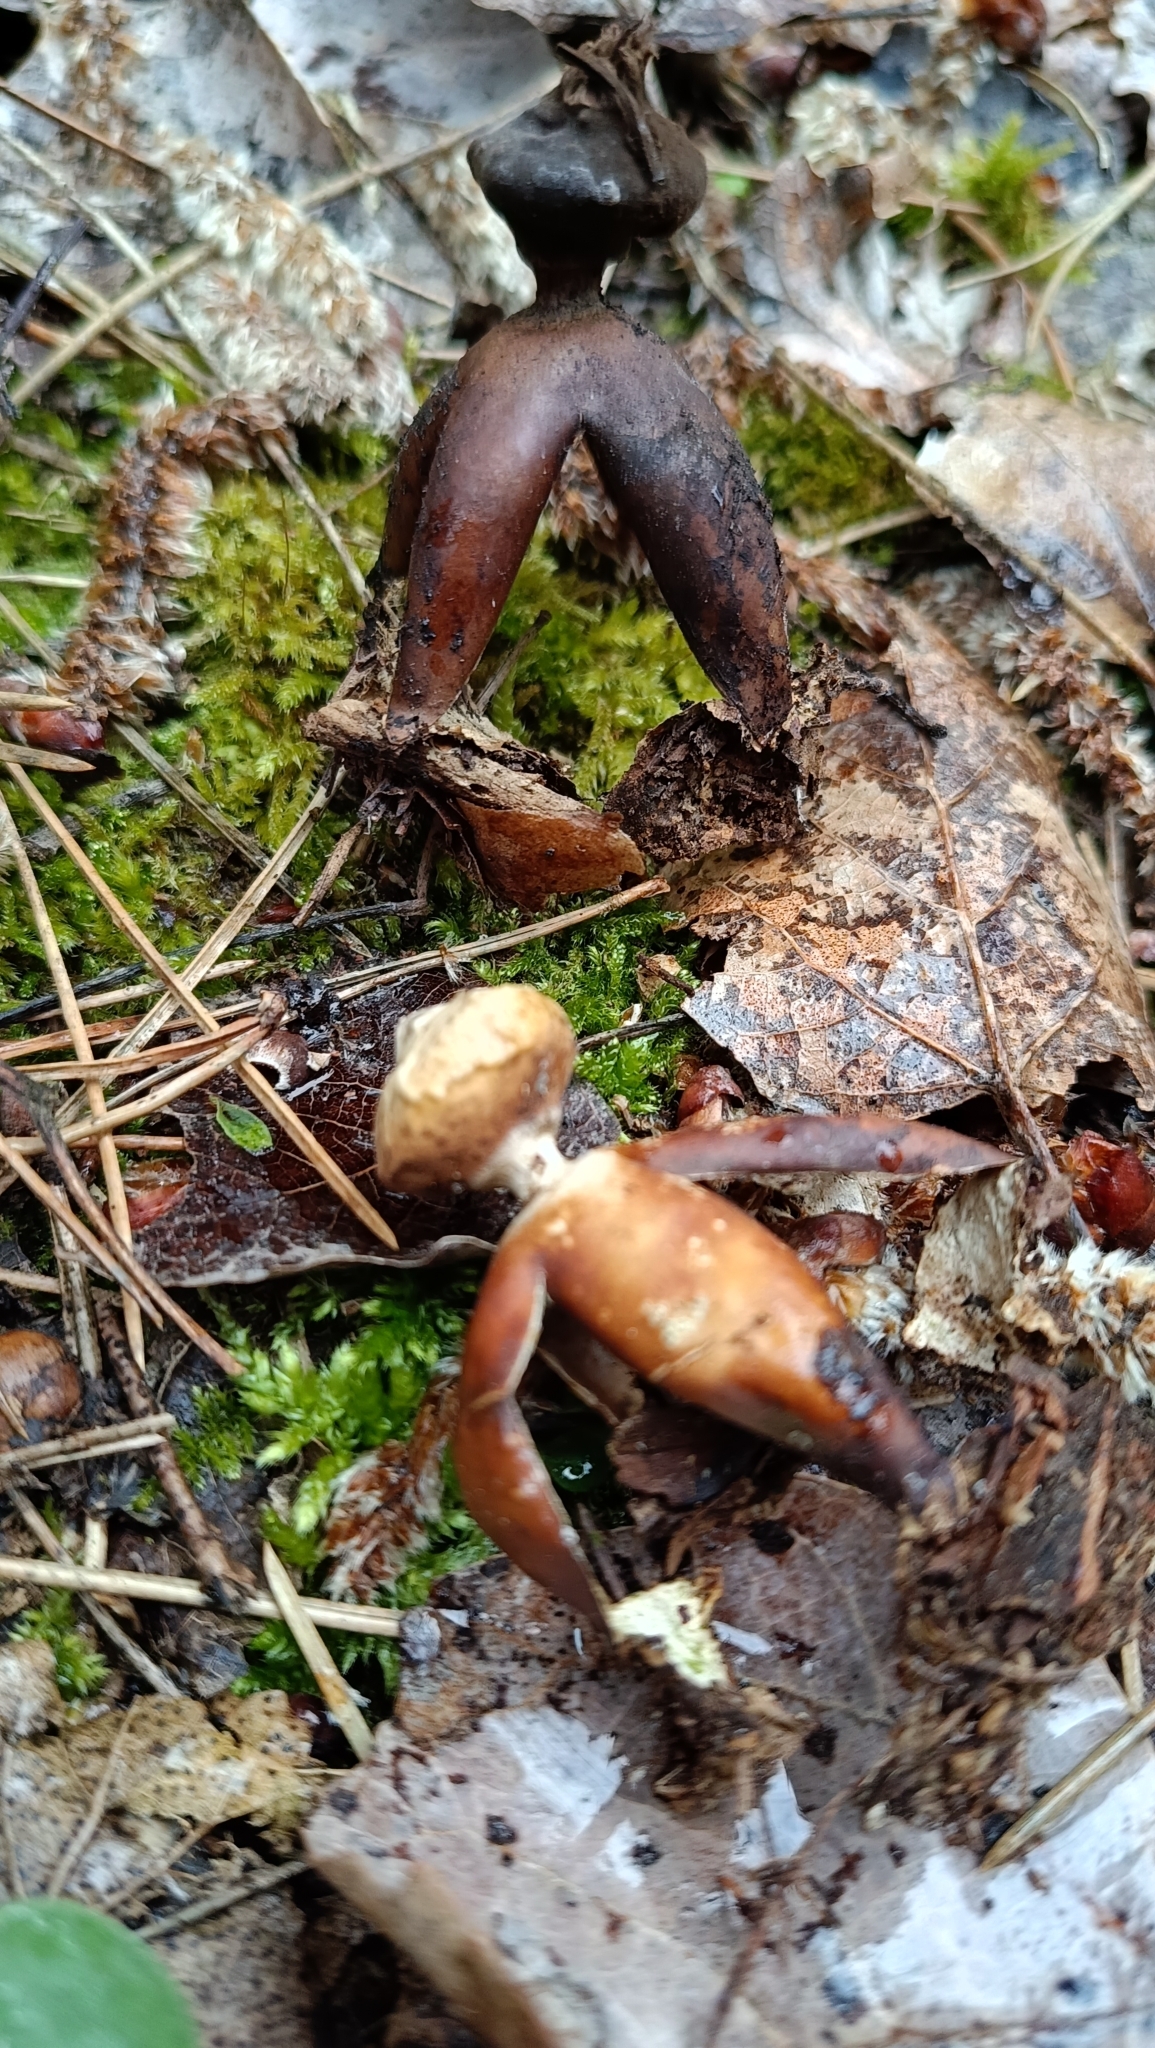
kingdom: Fungi
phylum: Basidiomycota
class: Agaricomycetes
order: Geastrales
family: Geastraceae
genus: Geastrum
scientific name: Geastrum fornicatum
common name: Arched earthstar
